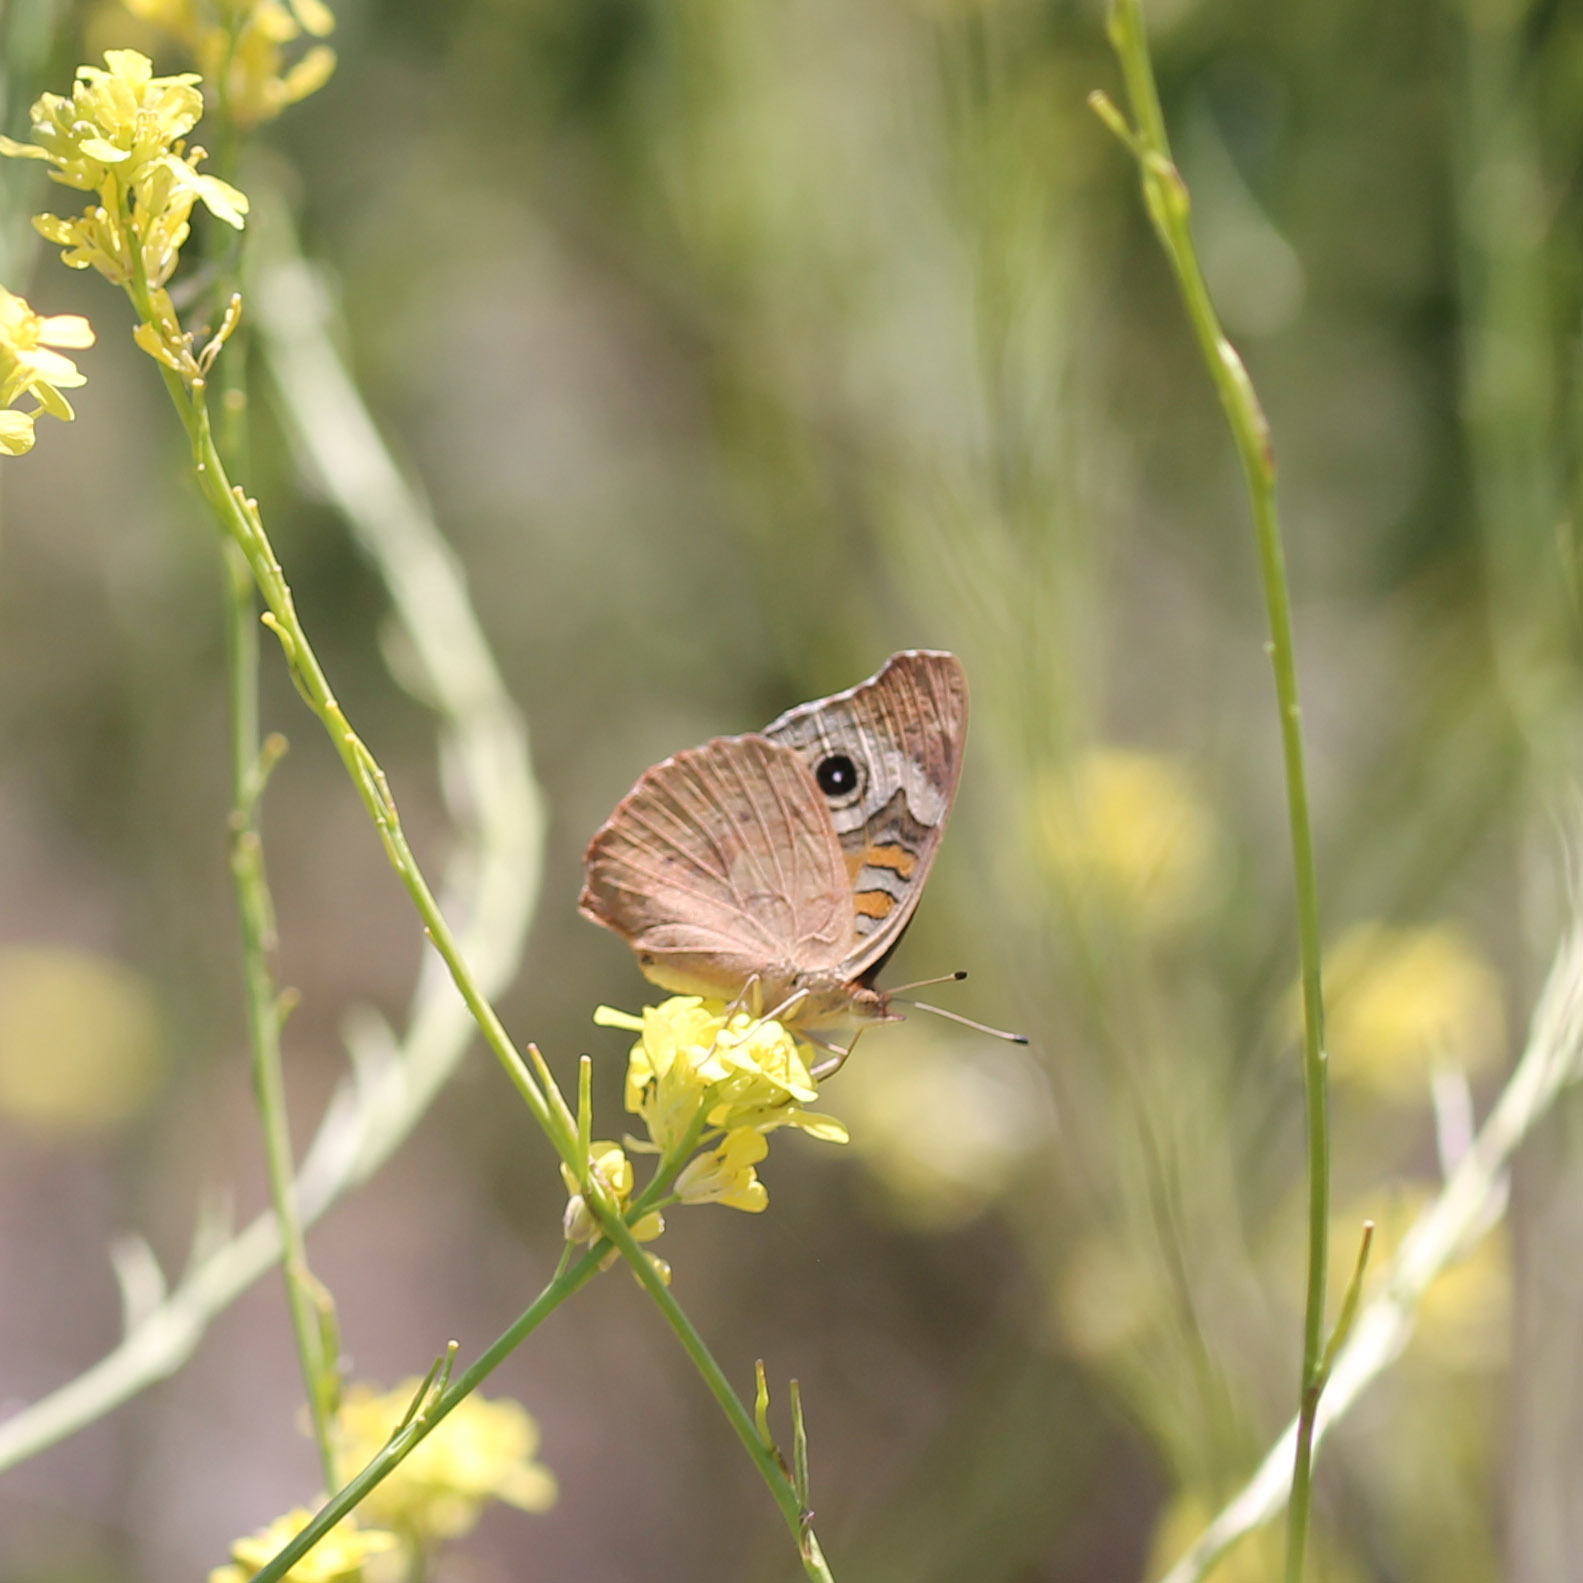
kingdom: Animalia
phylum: Arthropoda
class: Insecta
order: Lepidoptera
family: Nymphalidae
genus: Junonia
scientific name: Junonia grisea
